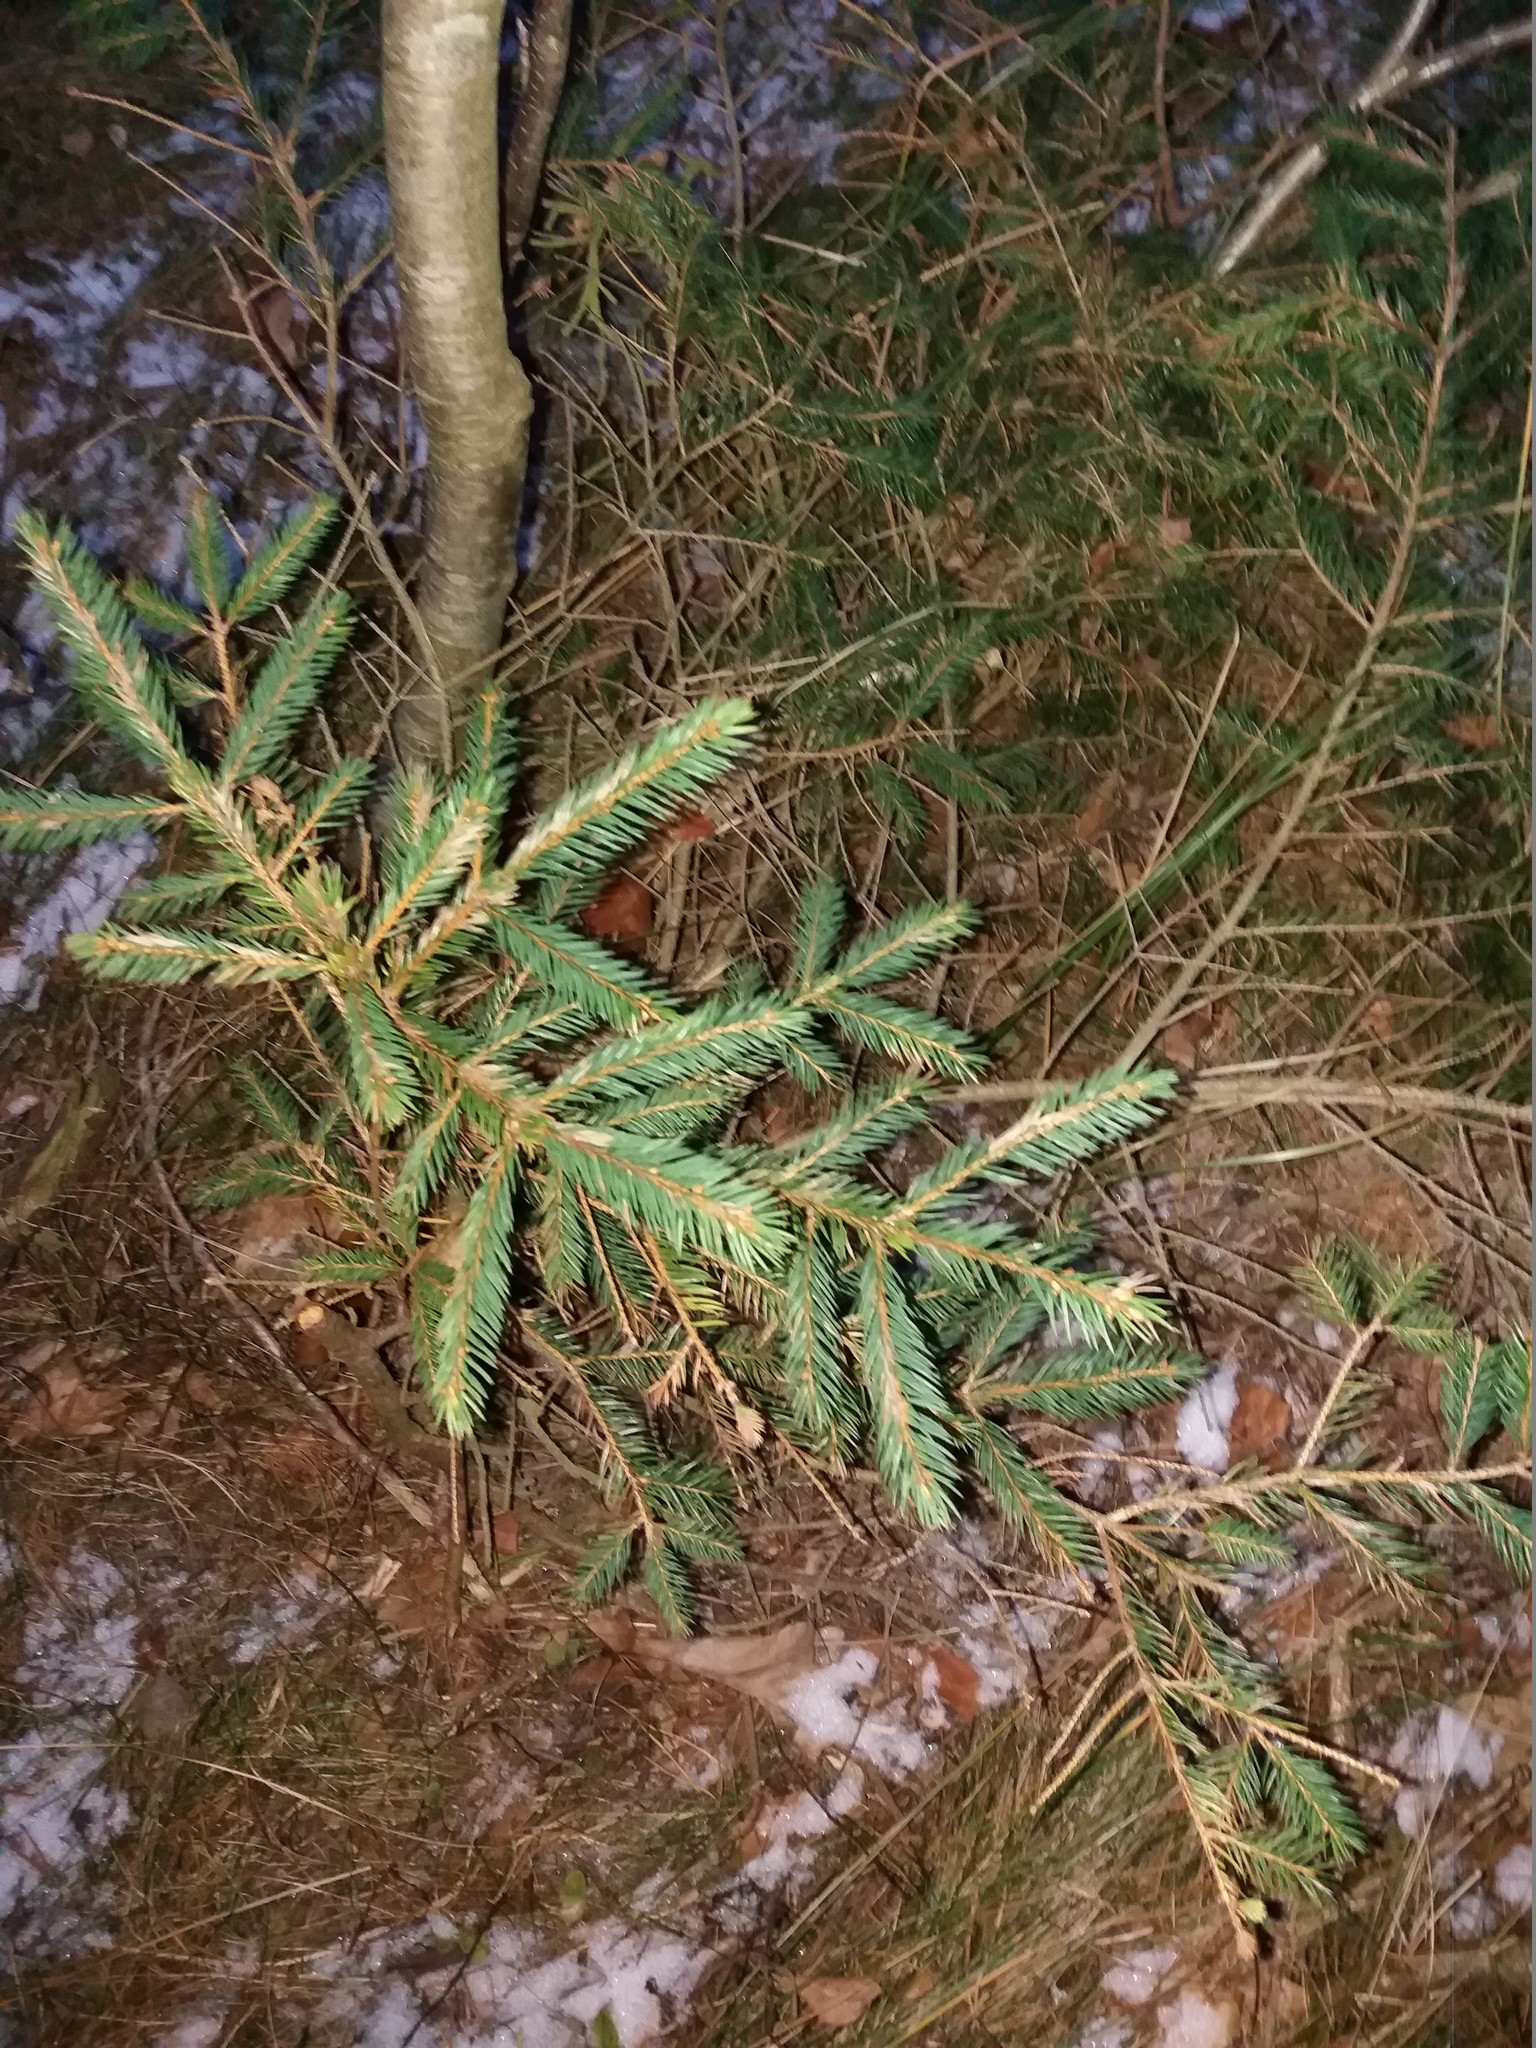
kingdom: Plantae
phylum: Tracheophyta
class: Pinopsida
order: Pinales
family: Pinaceae
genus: Picea
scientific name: Picea abies
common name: Norway spruce
